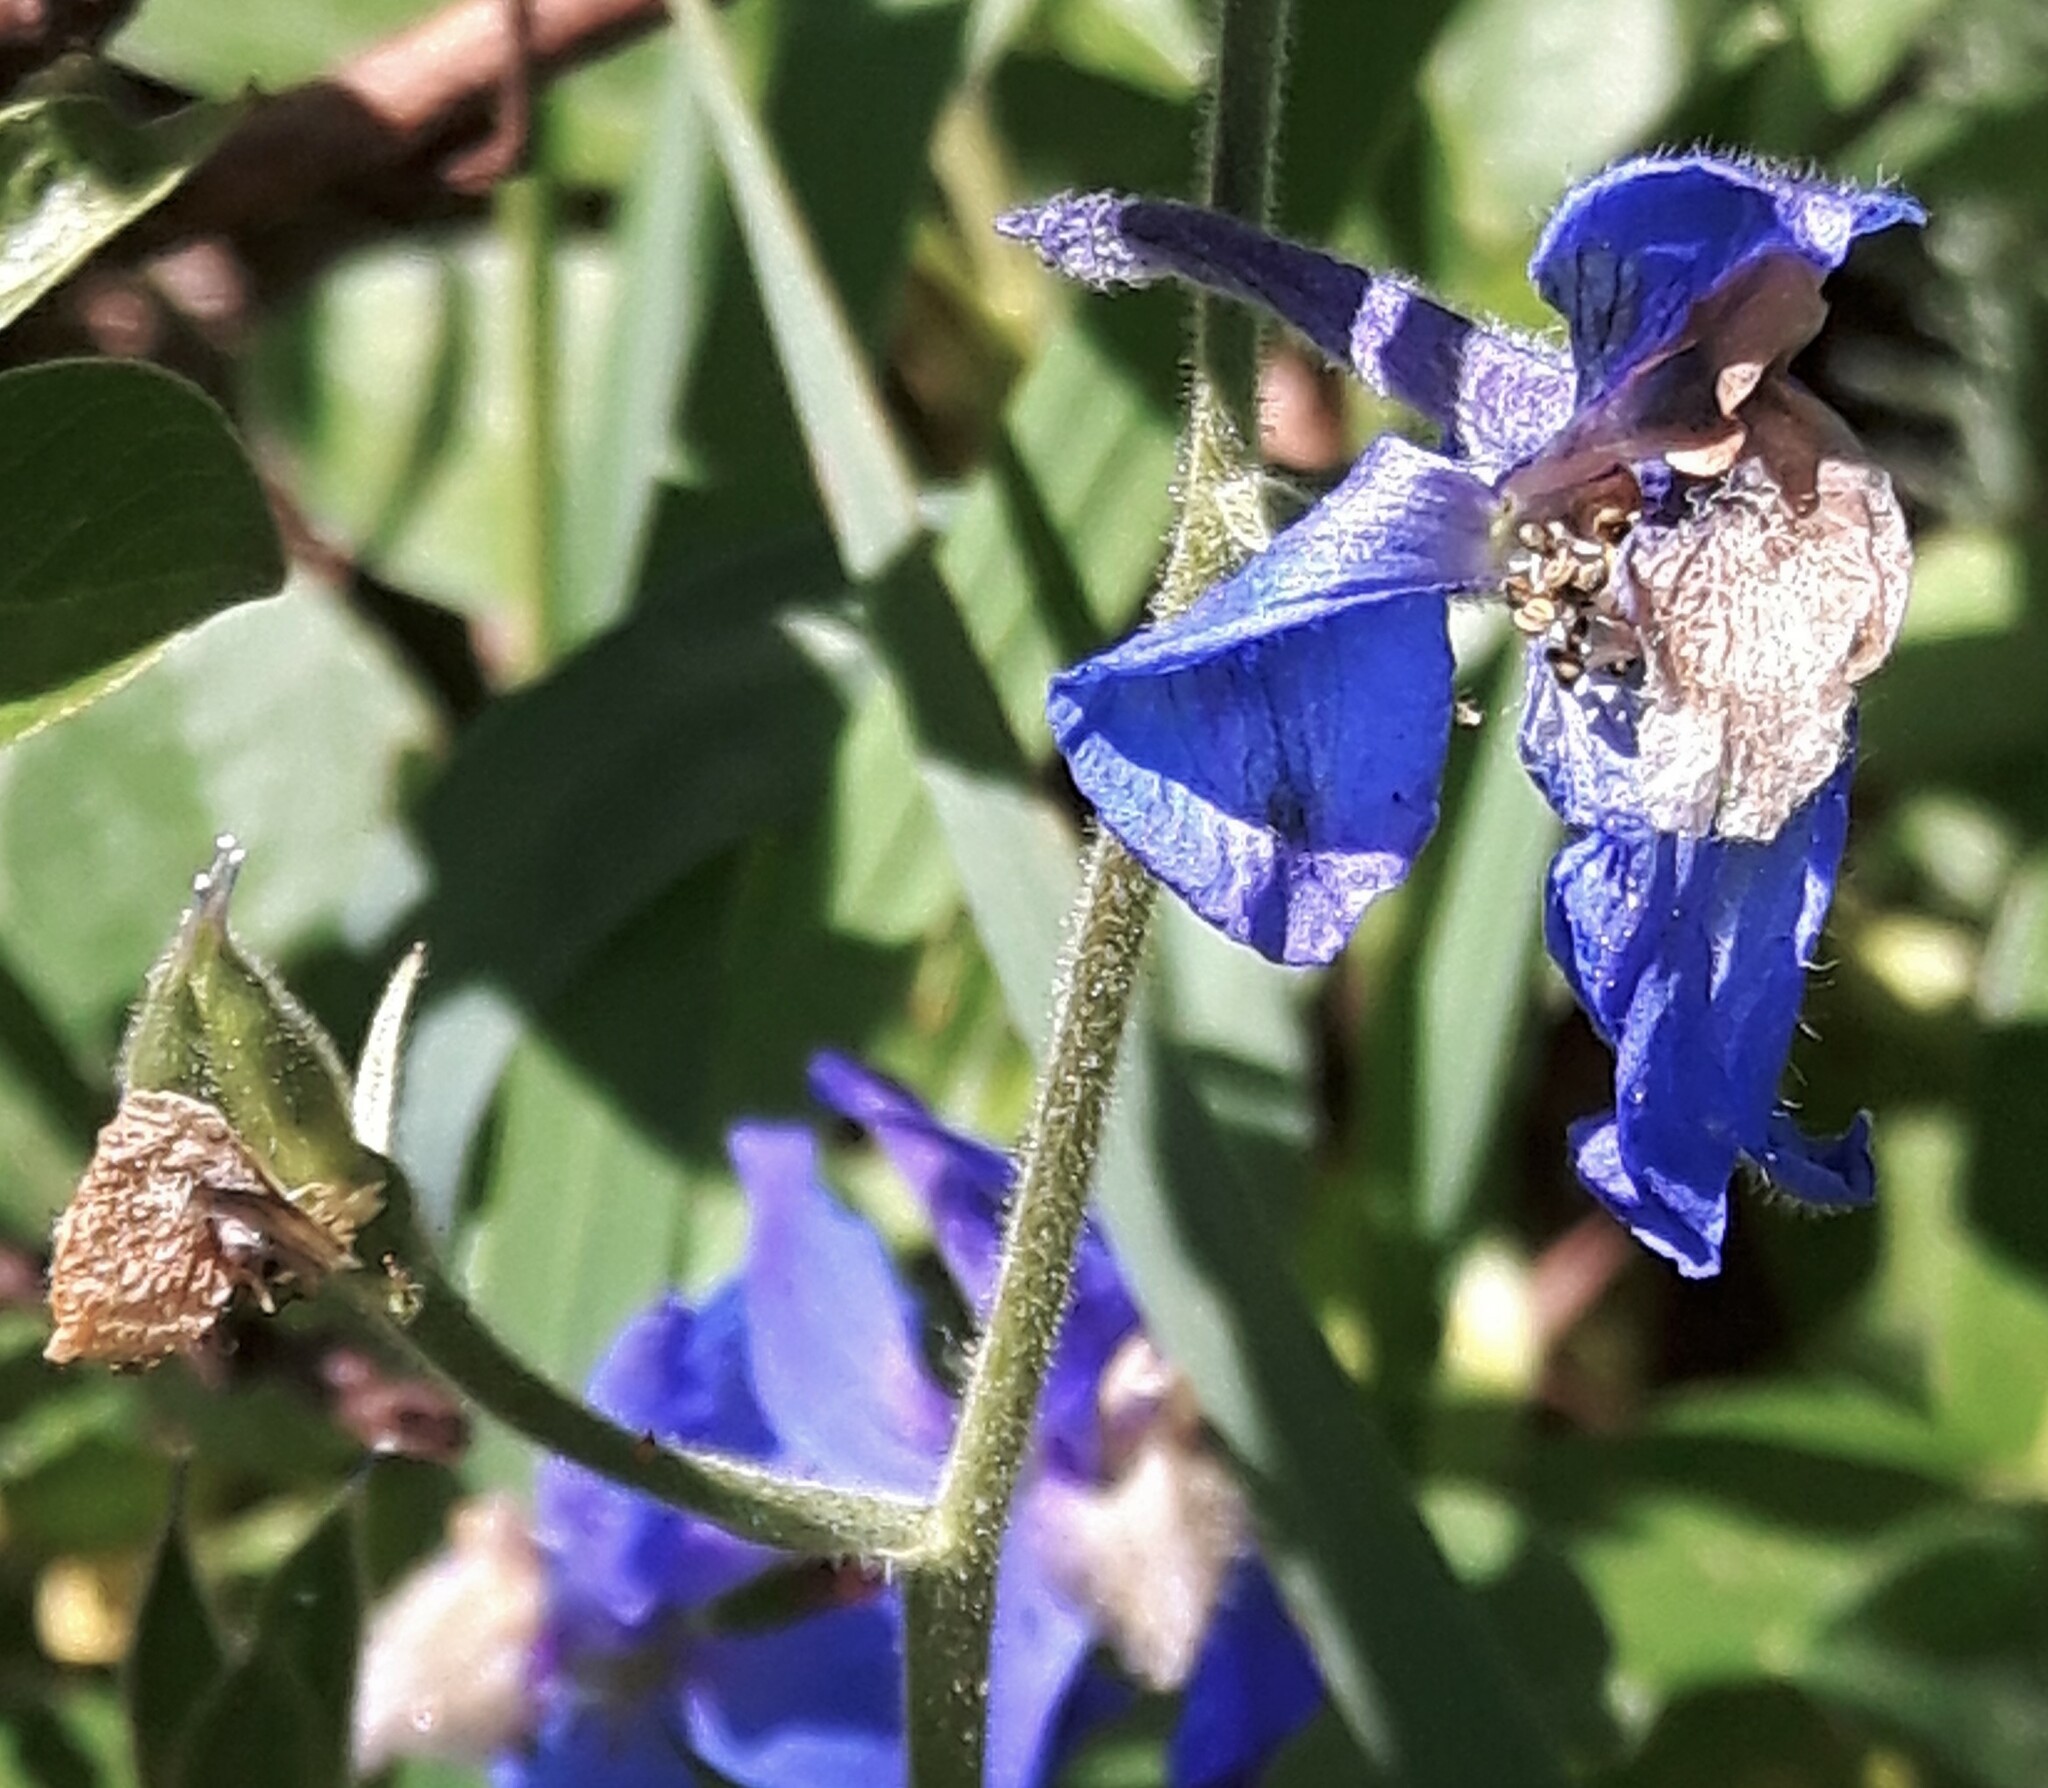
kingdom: Plantae
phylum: Tracheophyta
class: Magnoliopsida
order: Ranunculales
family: Ranunculaceae
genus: Delphinium
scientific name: Delphinium sutherlandii
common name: Sutherland's larkspur
